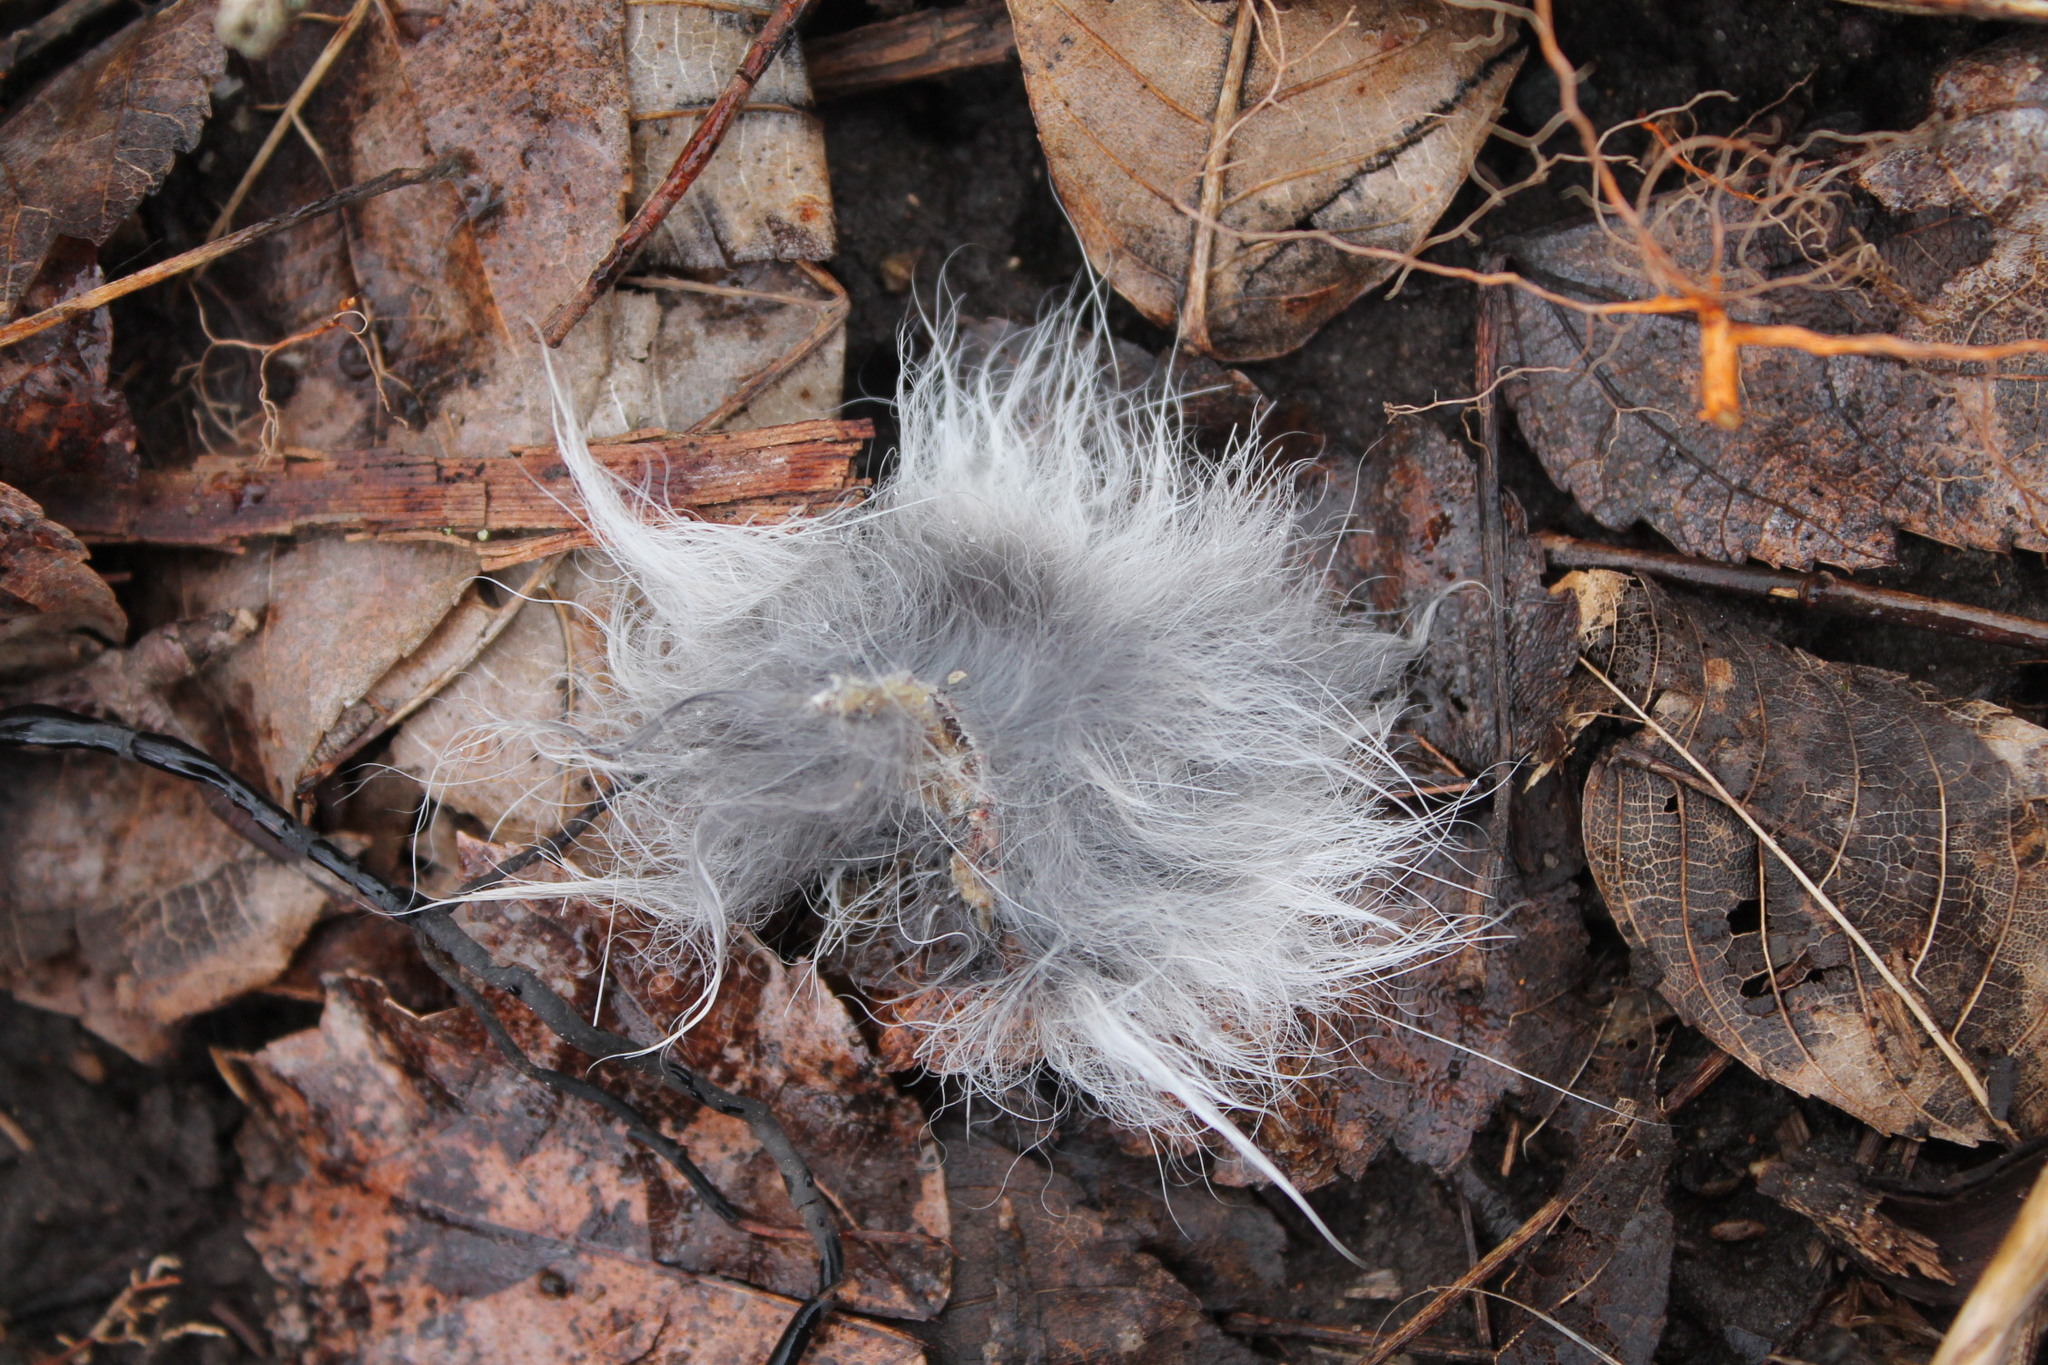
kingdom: Animalia
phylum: Chordata
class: Mammalia
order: Lagomorpha
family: Leporidae
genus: Sylvilagus
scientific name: Sylvilagus floridanus
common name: Eastern cottontail
